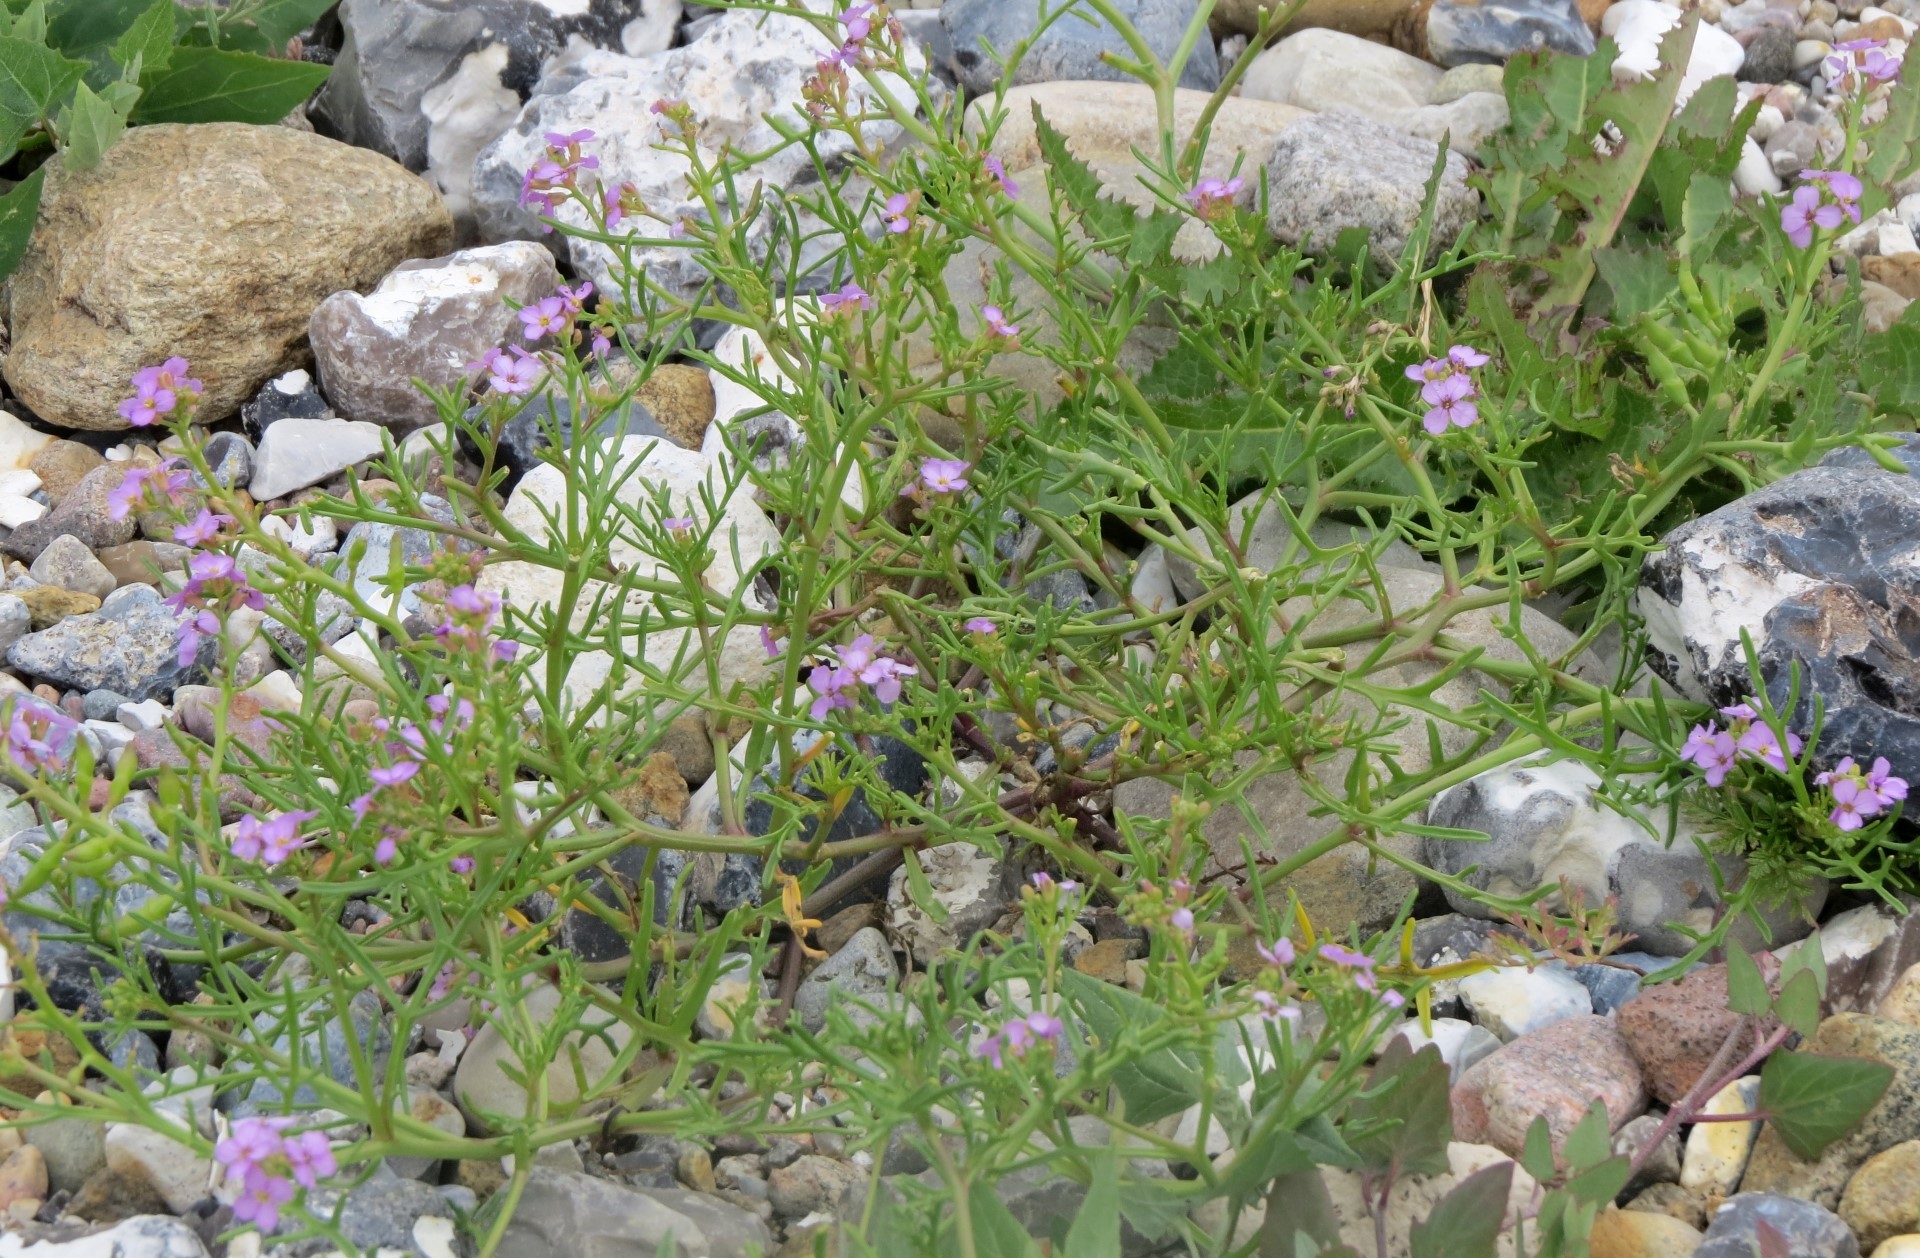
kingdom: Plantae
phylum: Tracheophyta
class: Magnoliopsida
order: Brassicales
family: Brassicaceae
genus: Cakile
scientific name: Cakile maritima
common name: Sea rocket
